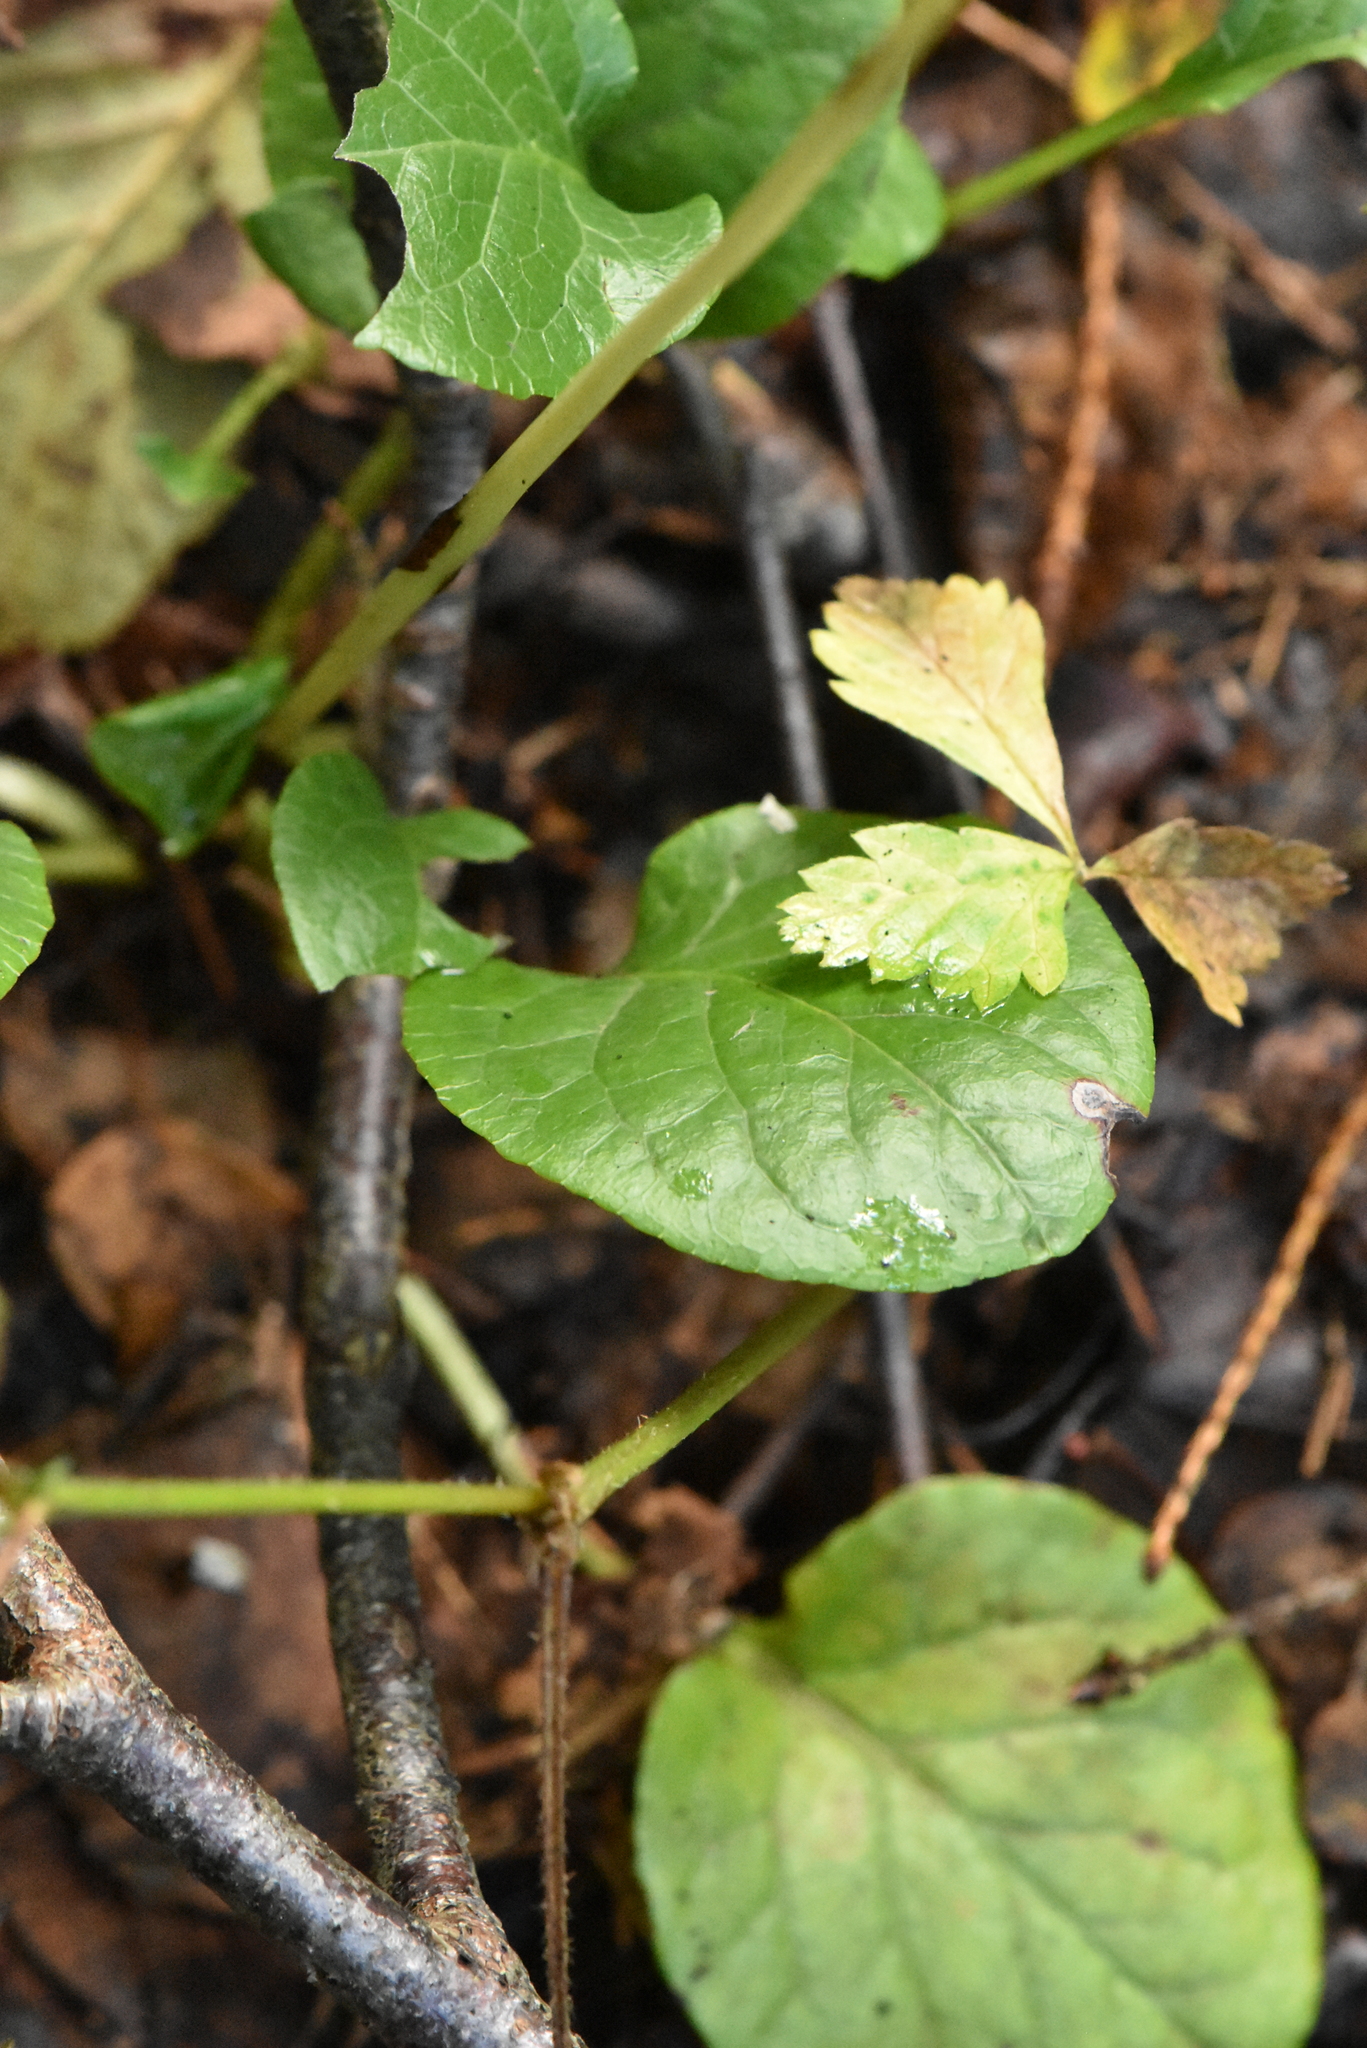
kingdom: Plantae
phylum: Tracheophyta
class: Magnoliopsida
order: Ericales
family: Ericaceae
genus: Pyrola
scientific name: Pyrola rotundifolia
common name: Round-leaved wintergreen
